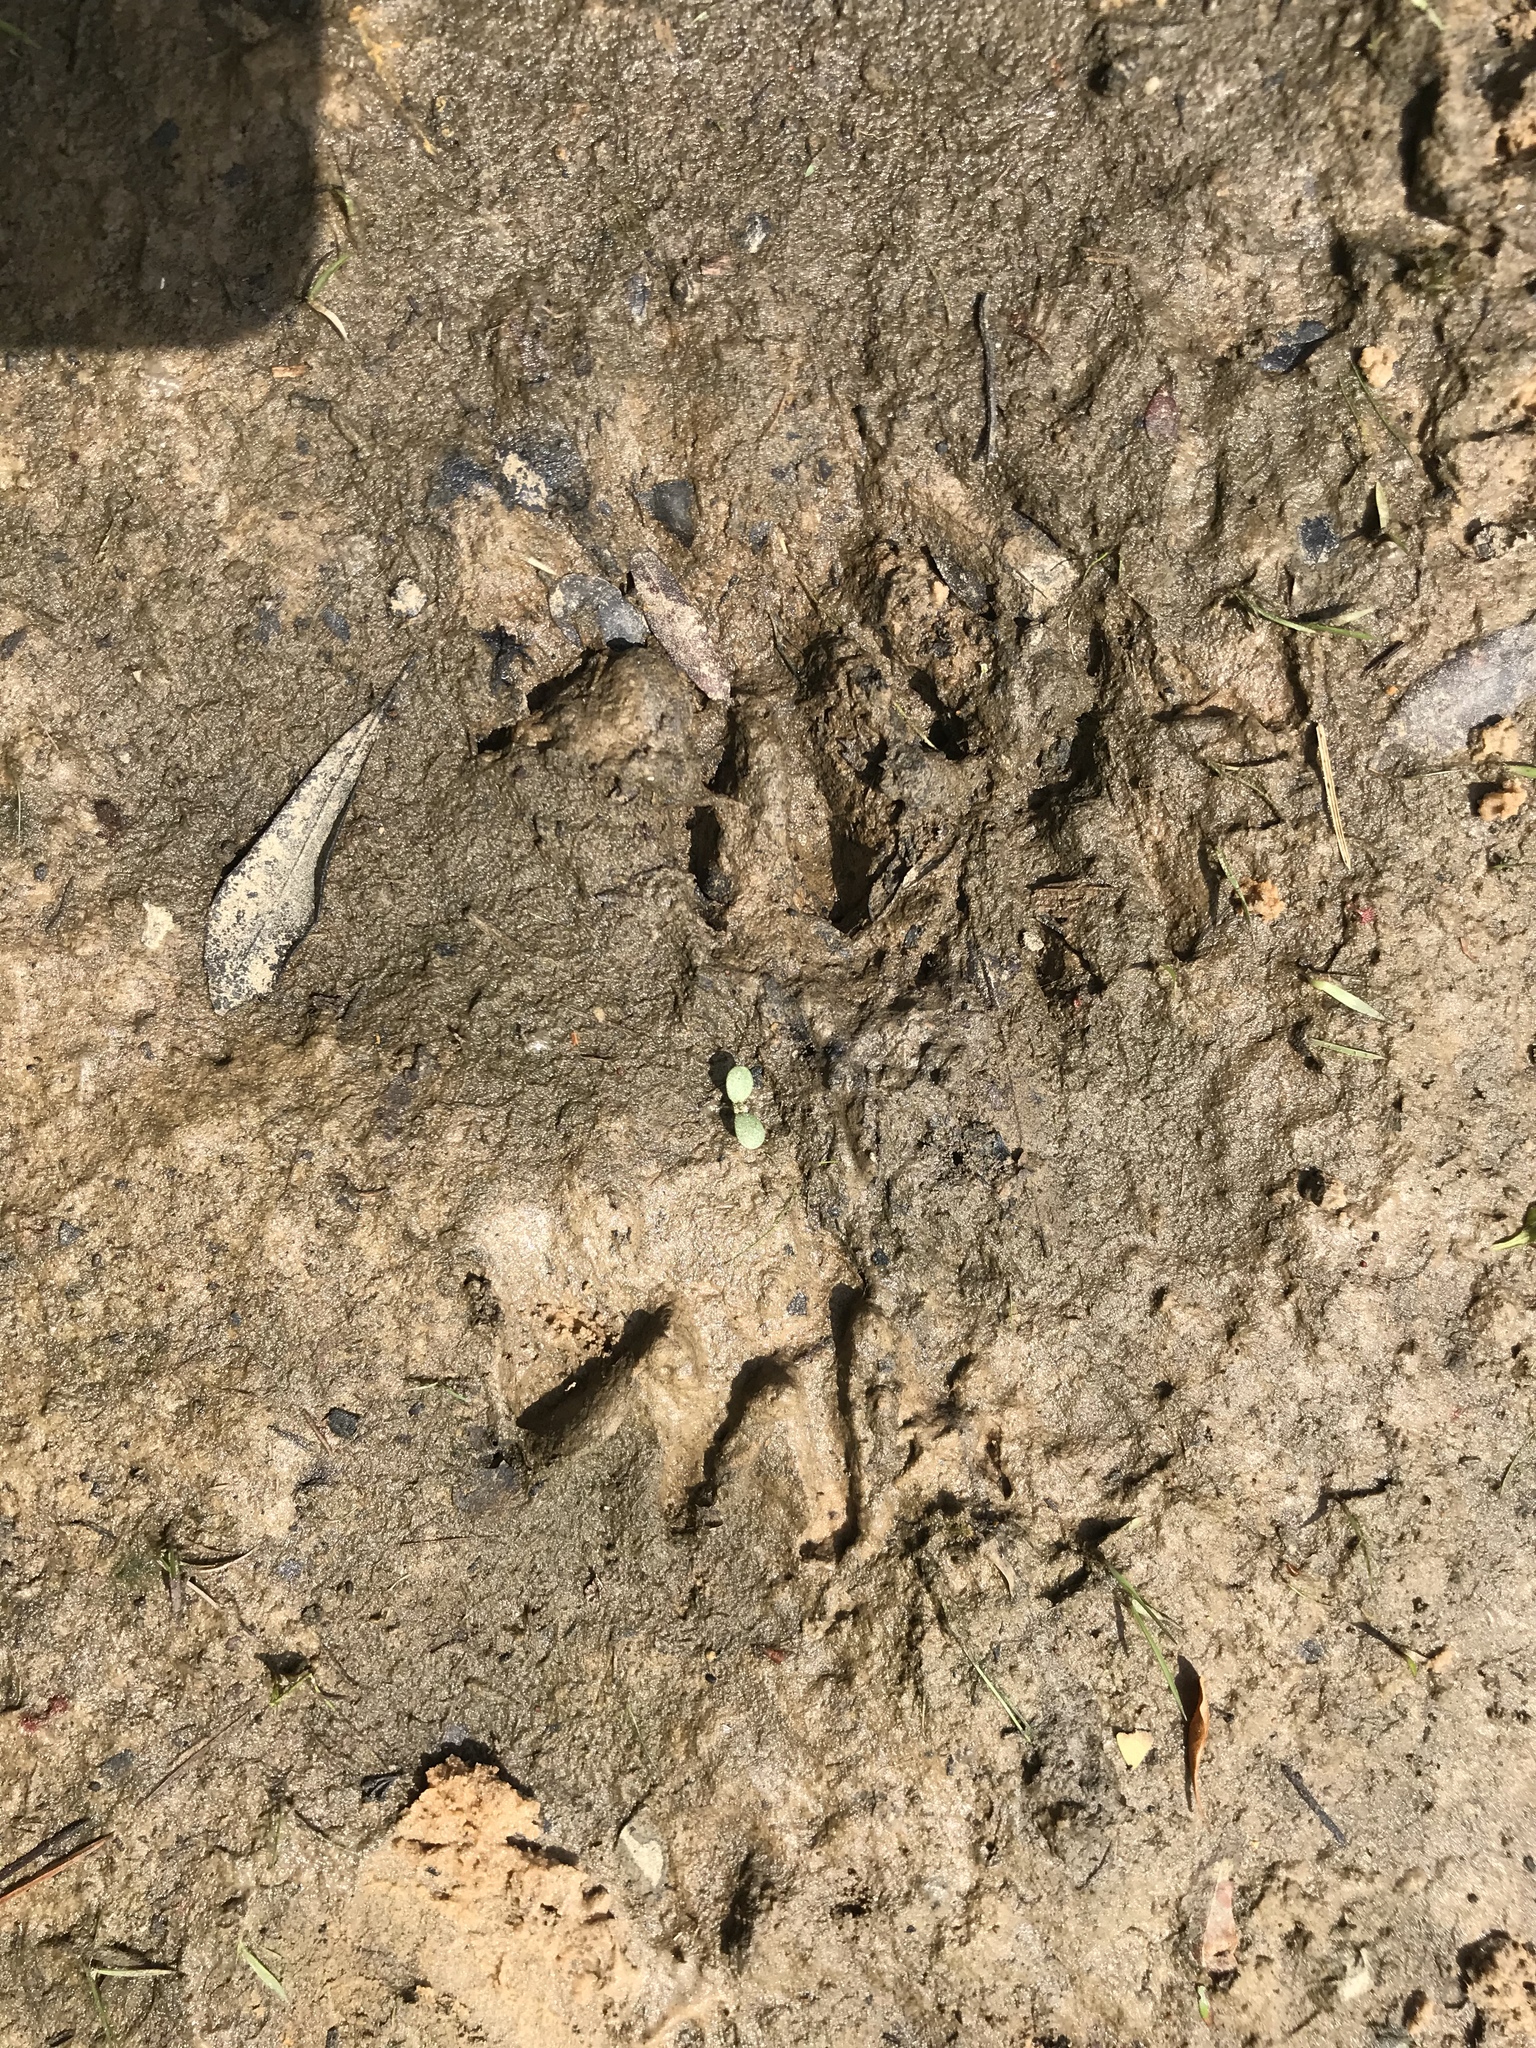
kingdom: Animalia
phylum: Chordata
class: Mammalia
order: Carnivora
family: Procyonidae
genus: Procyon
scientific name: Procyon lotor
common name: Raccoon
